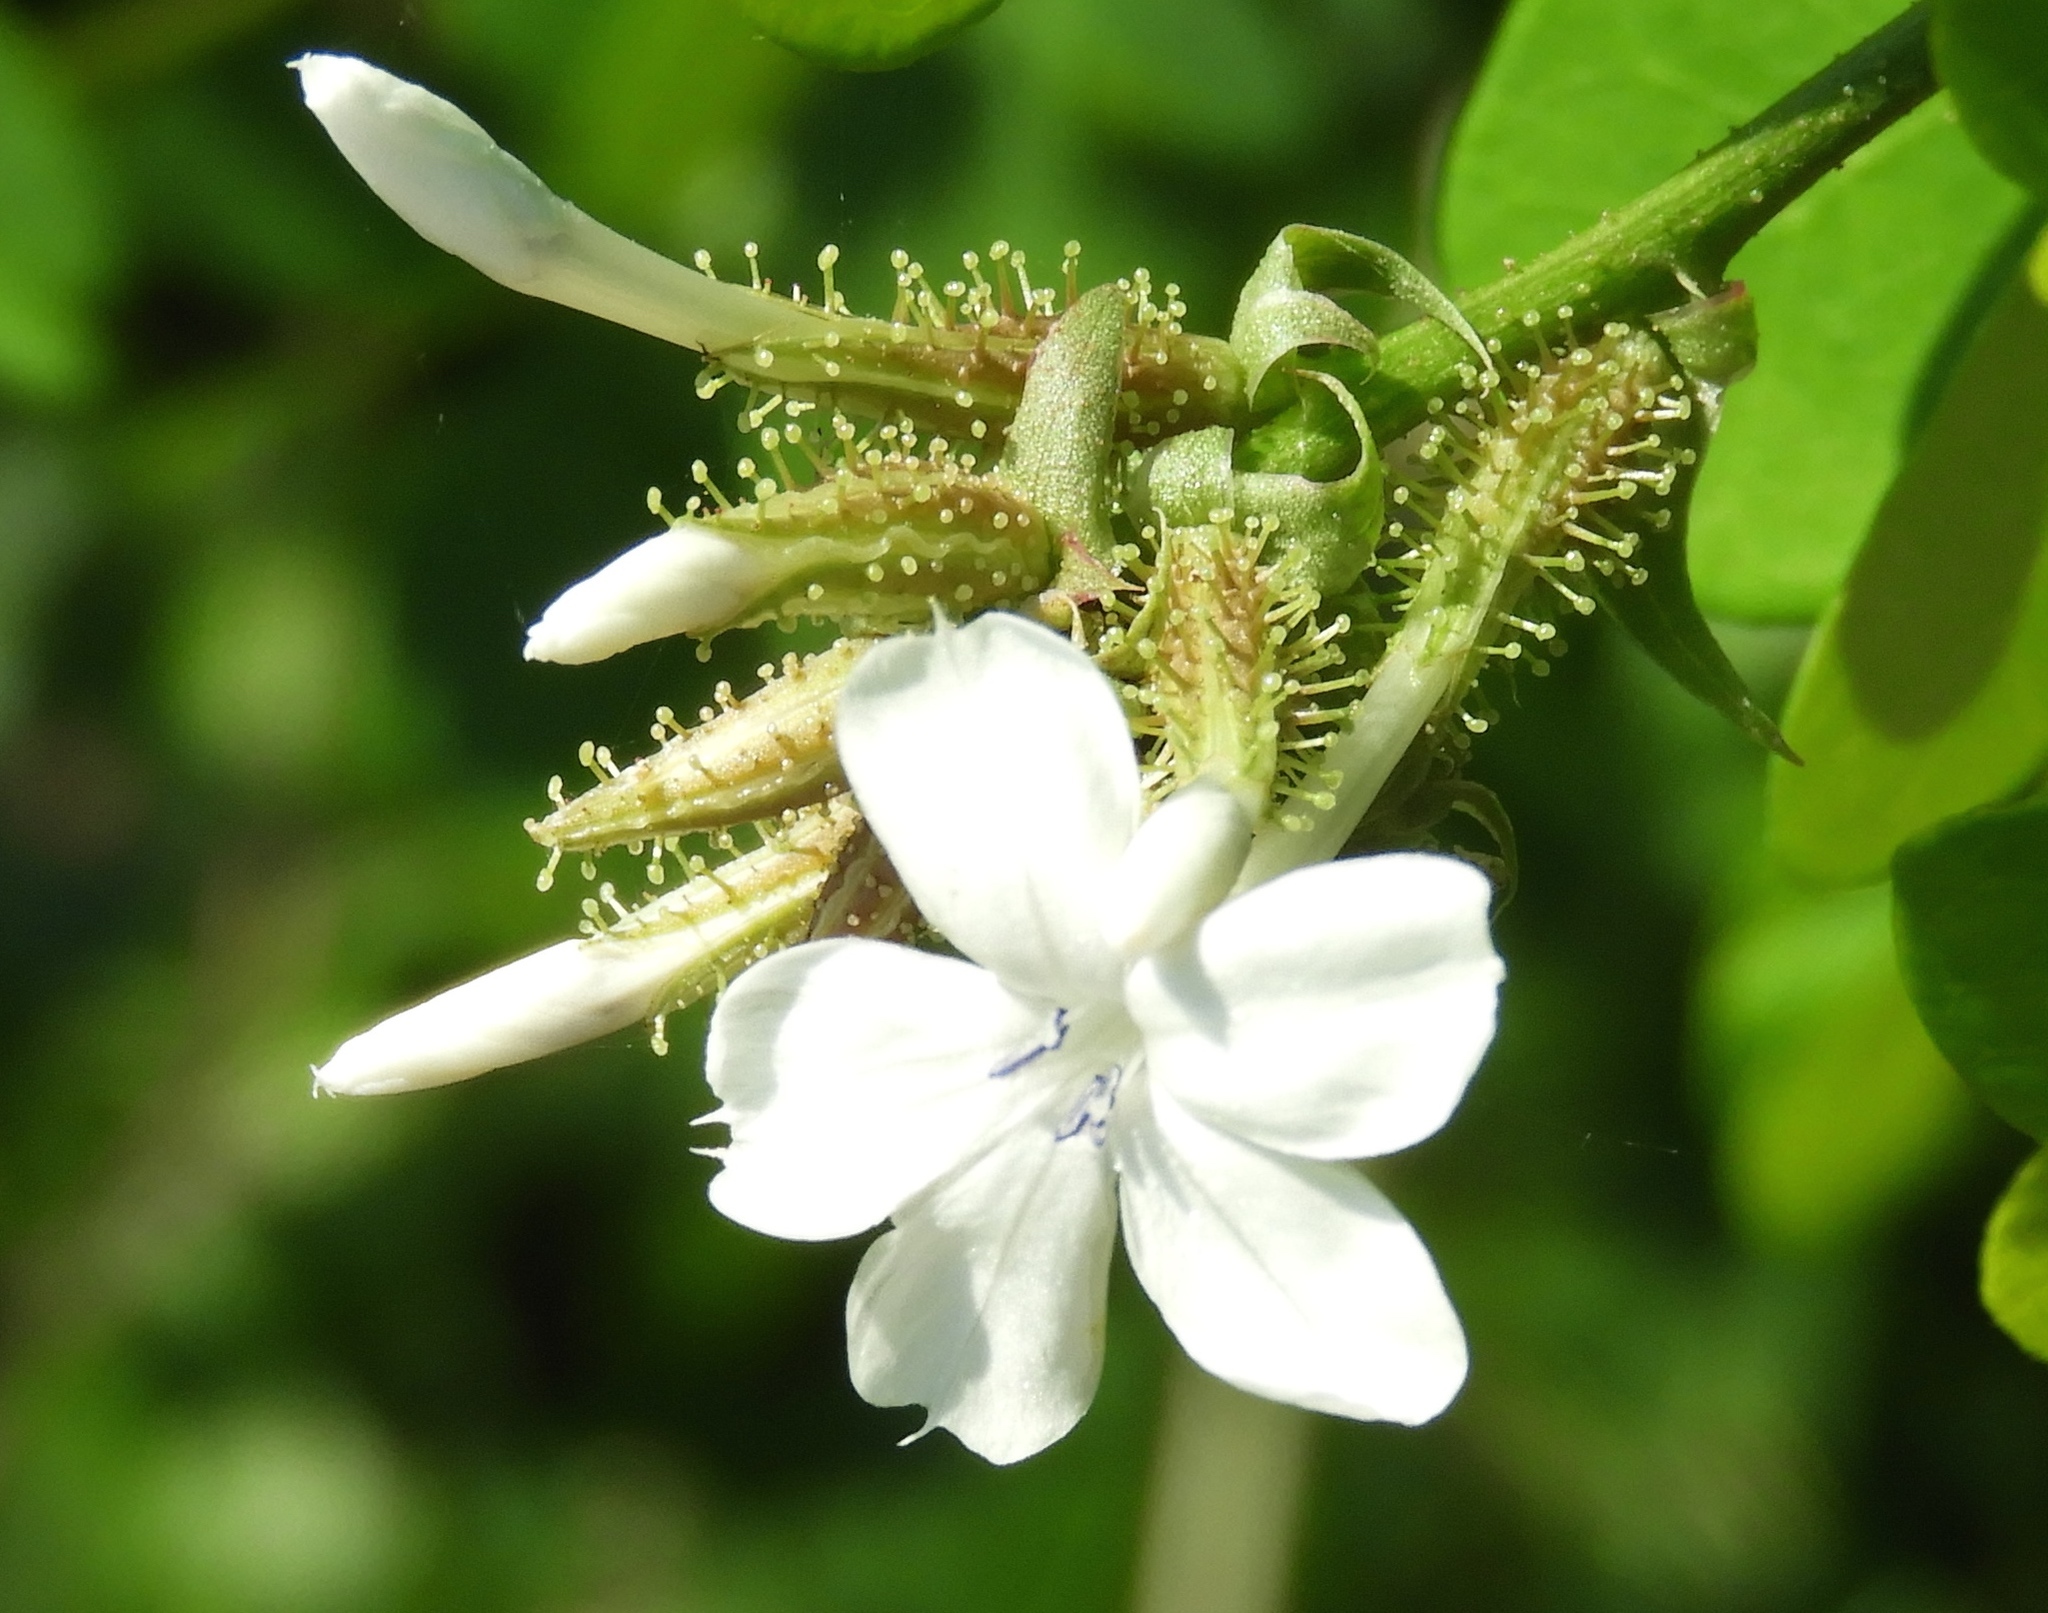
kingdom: Plantae
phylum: Tracheophyta
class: Magnoliopsida
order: Caryophyllales
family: Plumbaginaceae
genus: Plumbago
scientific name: Plumbago zeylanica
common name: Doctorbush
